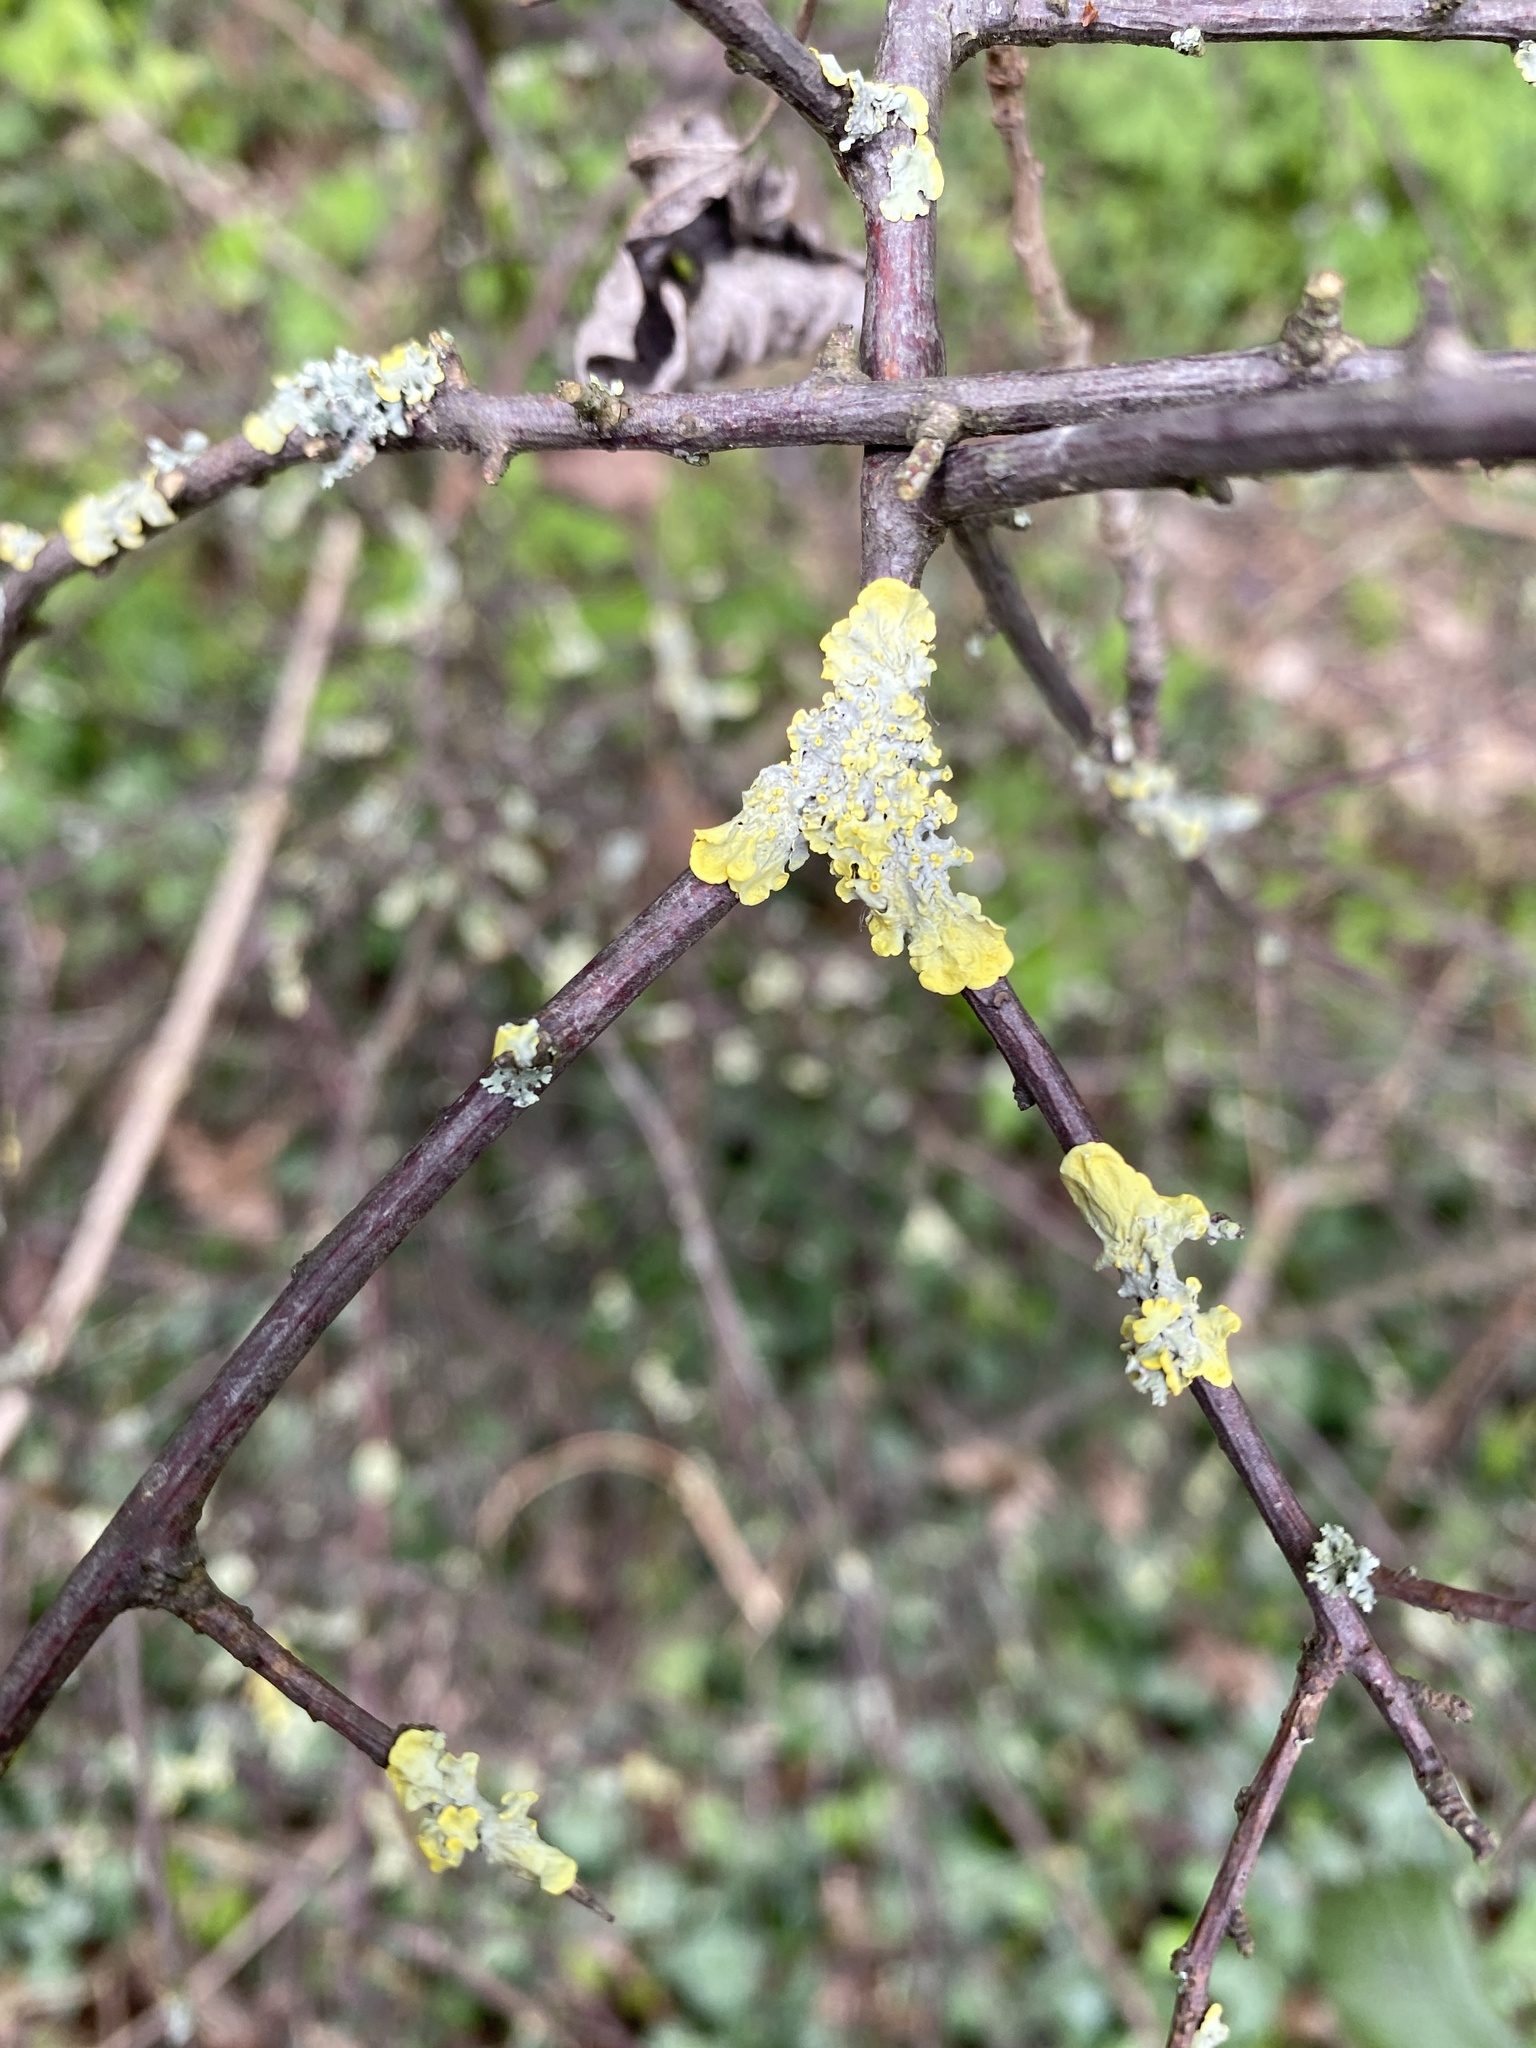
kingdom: Fungi
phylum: Ascomycota
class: Lecanoromycetes
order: Teloschistales
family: Teloschistaceae
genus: Xanthoria
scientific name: Xanthoria parietina
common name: Common orange lichen
